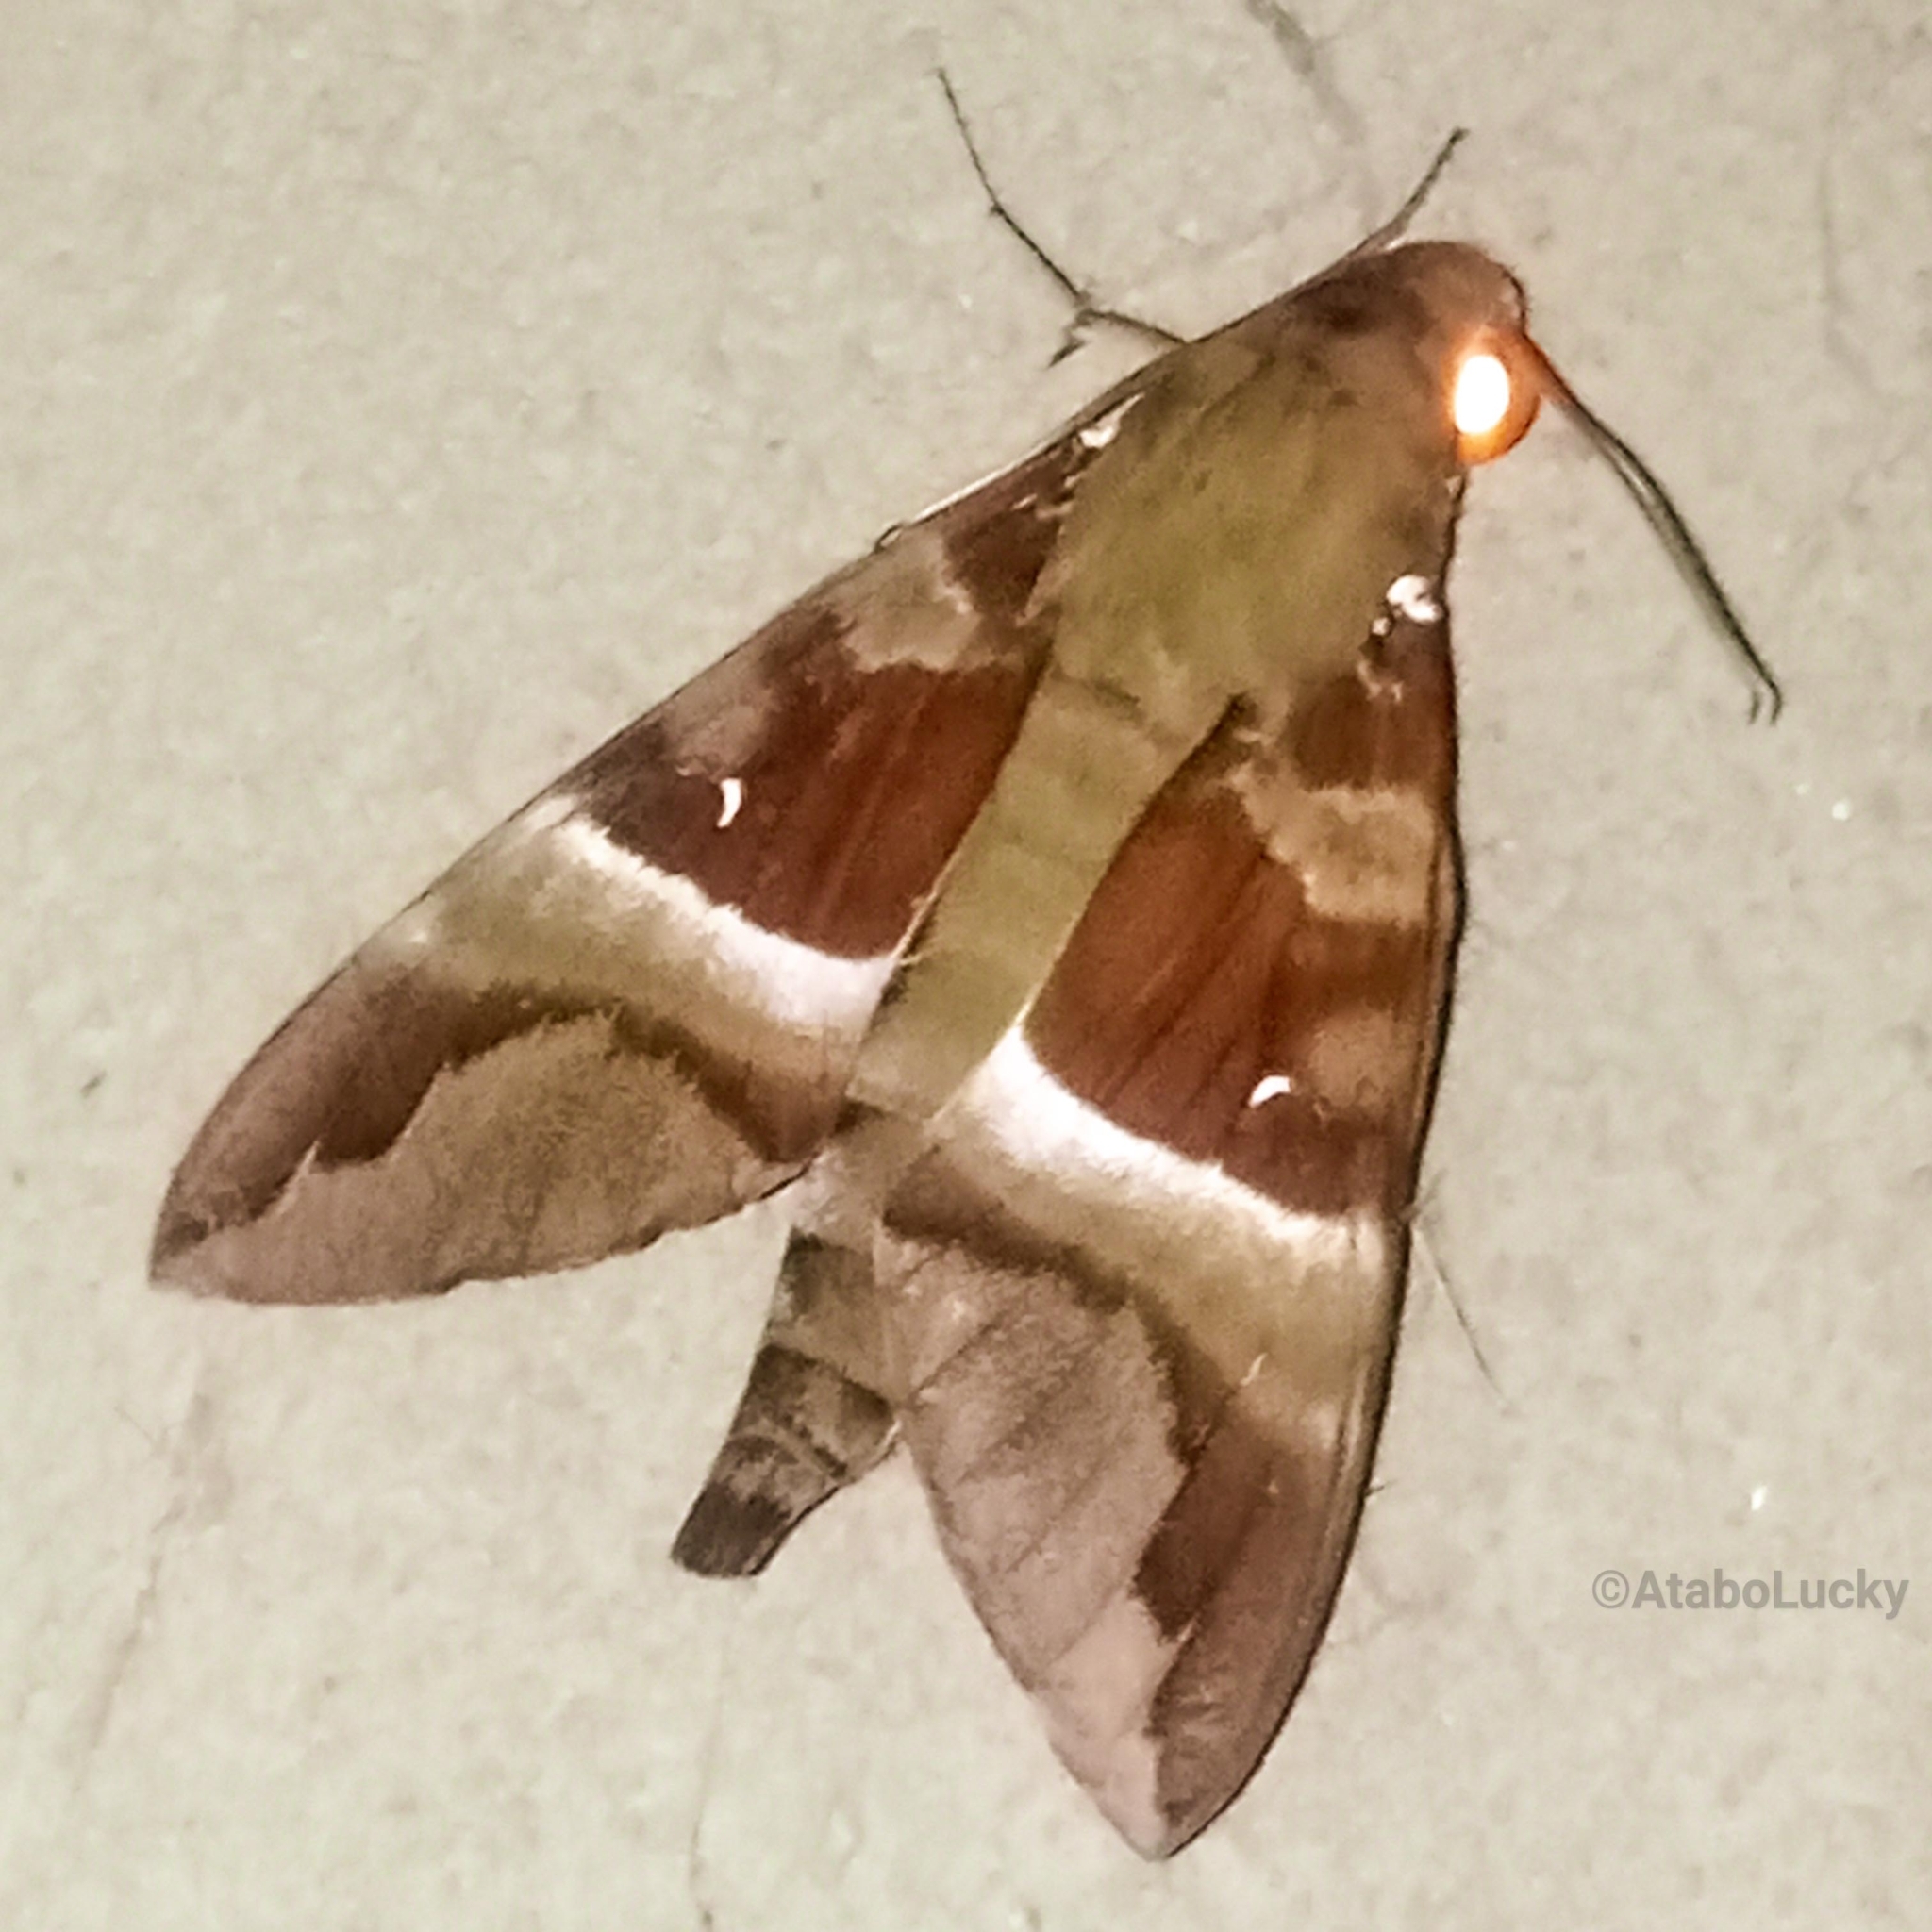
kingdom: Animalia
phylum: Arthropoda
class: Insecta
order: Lepidoptera
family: Sphingidae
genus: Nephele
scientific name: Nephele rosae
